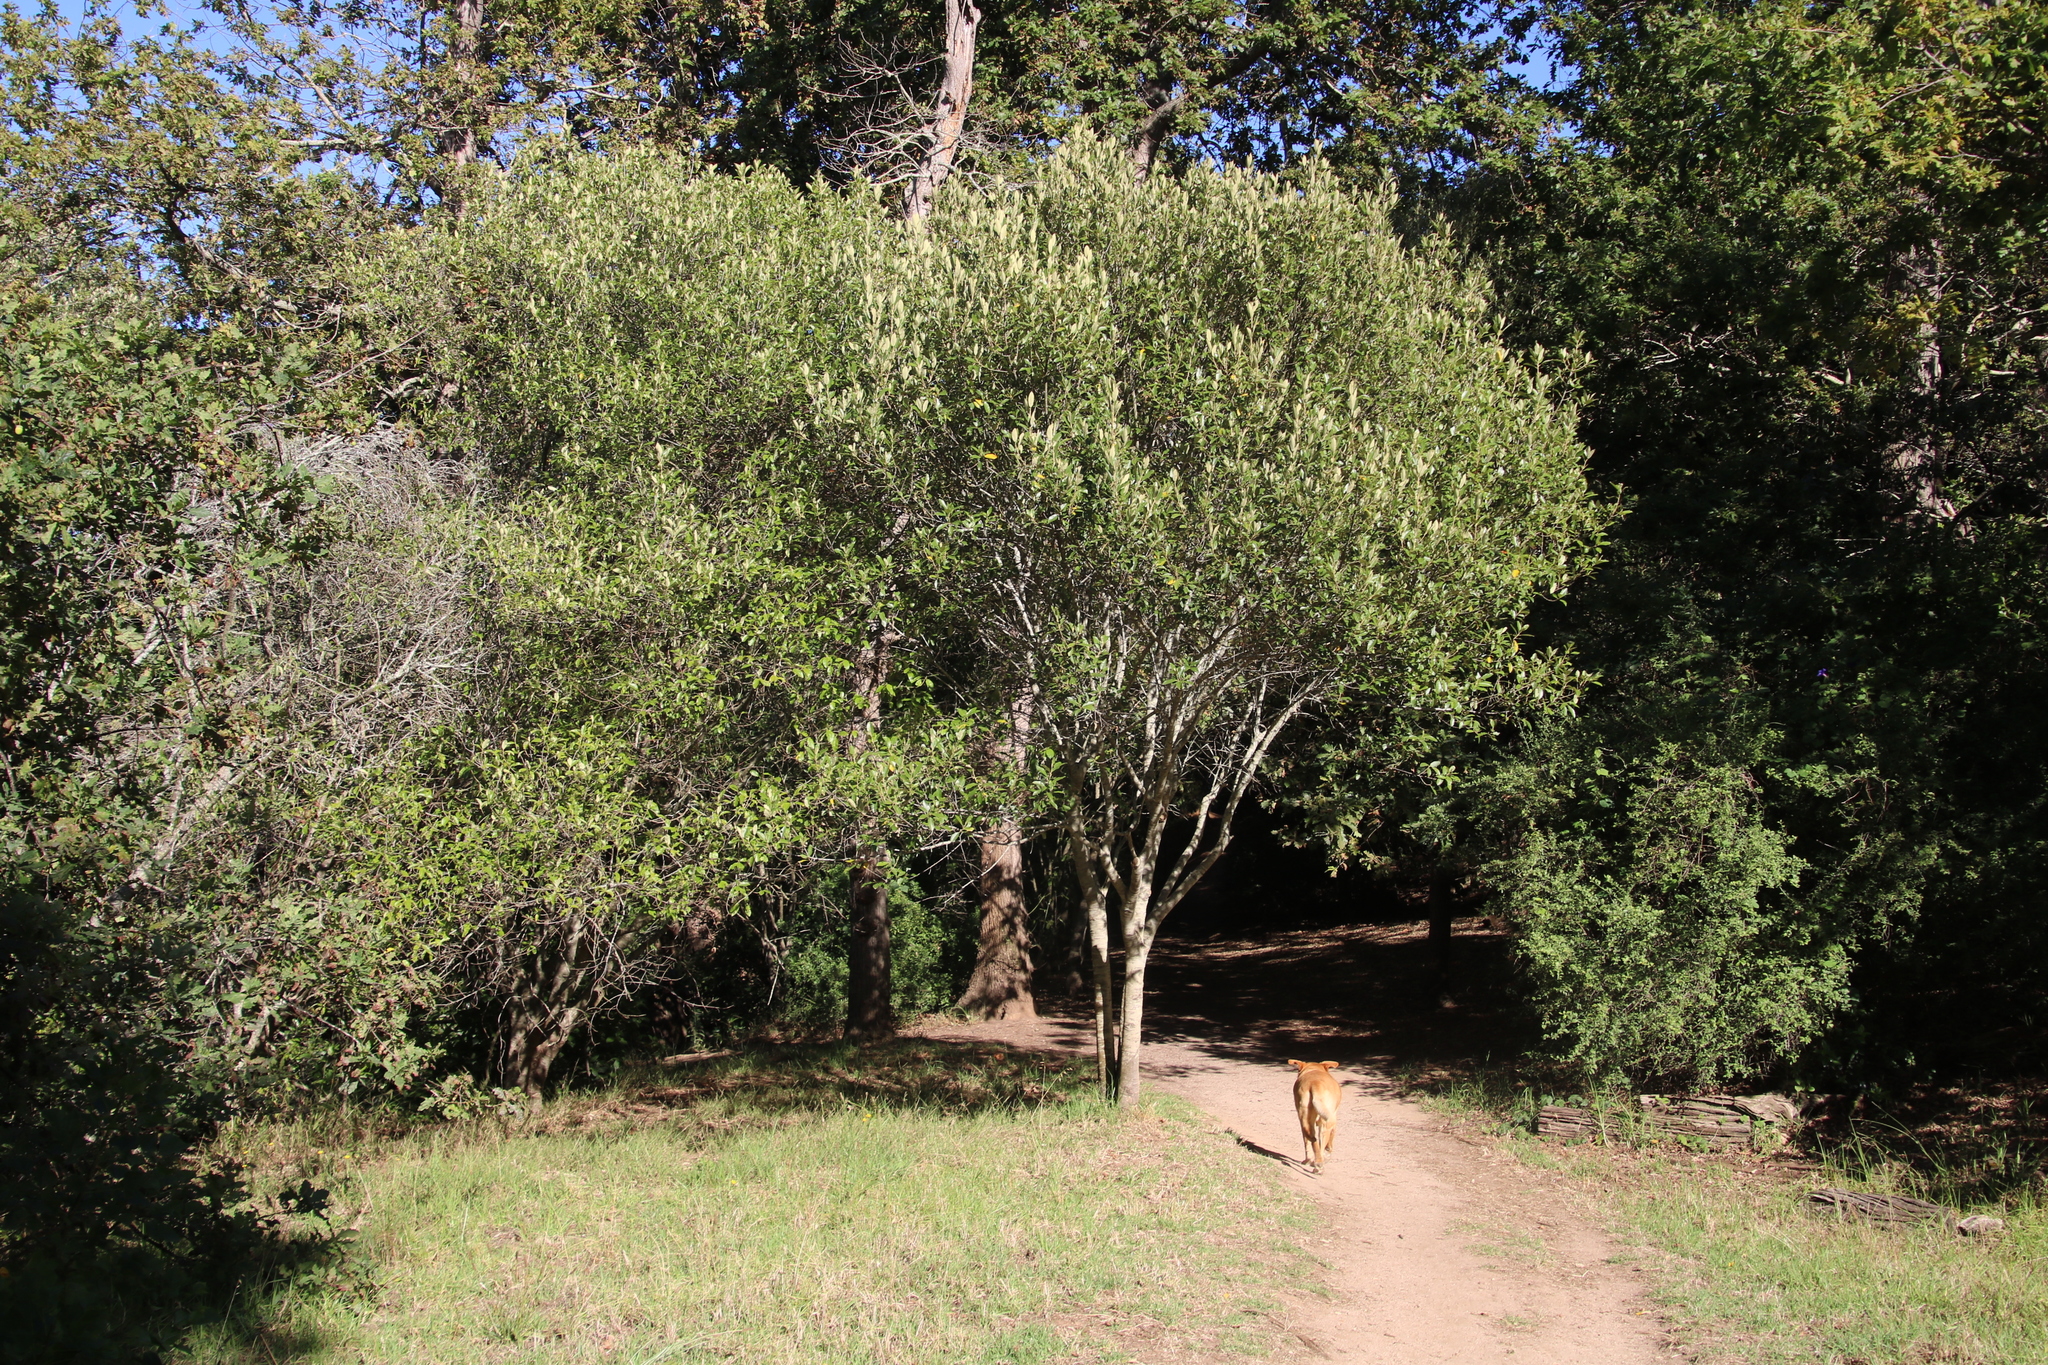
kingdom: Plantae
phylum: Tracheophyta
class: Magnoliopsida
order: Malpighiales
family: Achariaceae
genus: Kiggelaria
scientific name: Kiggelaria africana
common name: Wild peach
